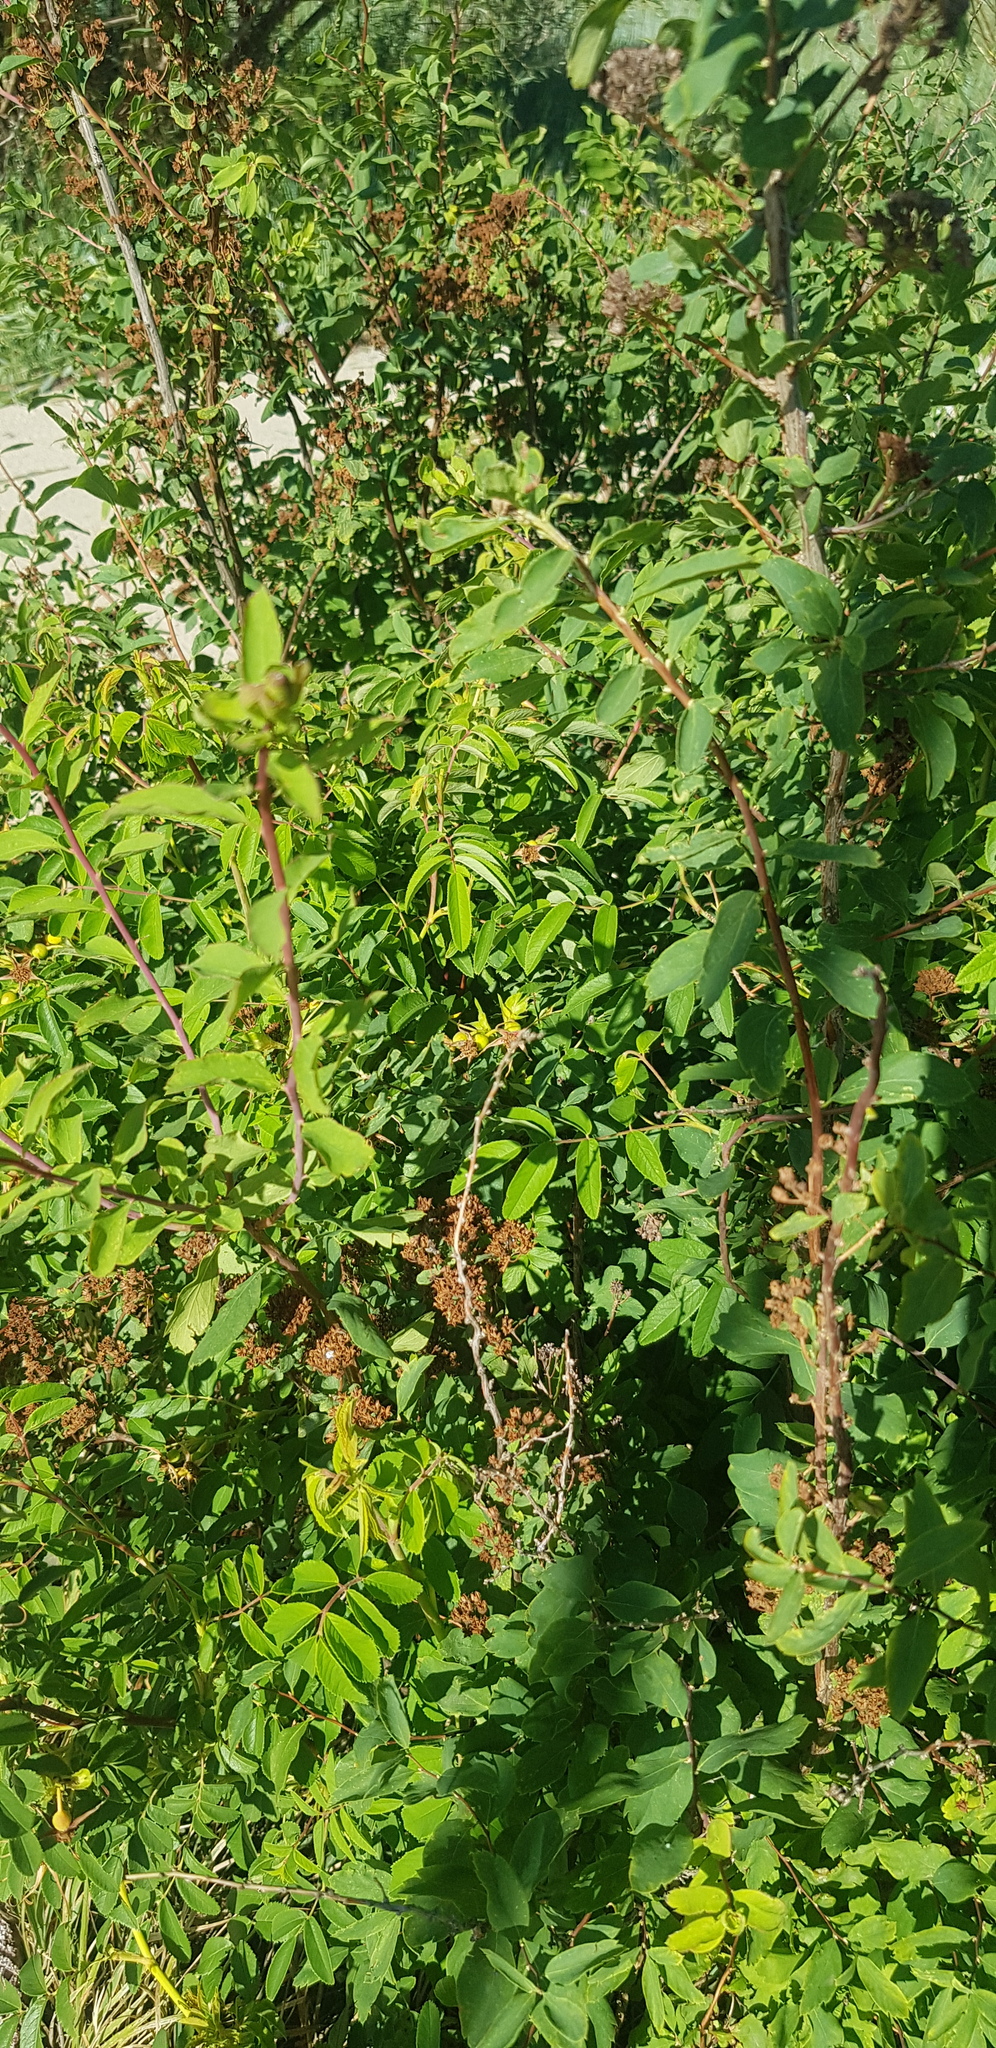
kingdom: Plantae
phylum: Tracheophyta
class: Magnoliopsida
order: Rosales
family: Rosaceae
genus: Spiraea
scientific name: Spiraea media
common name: Russian spiraea
